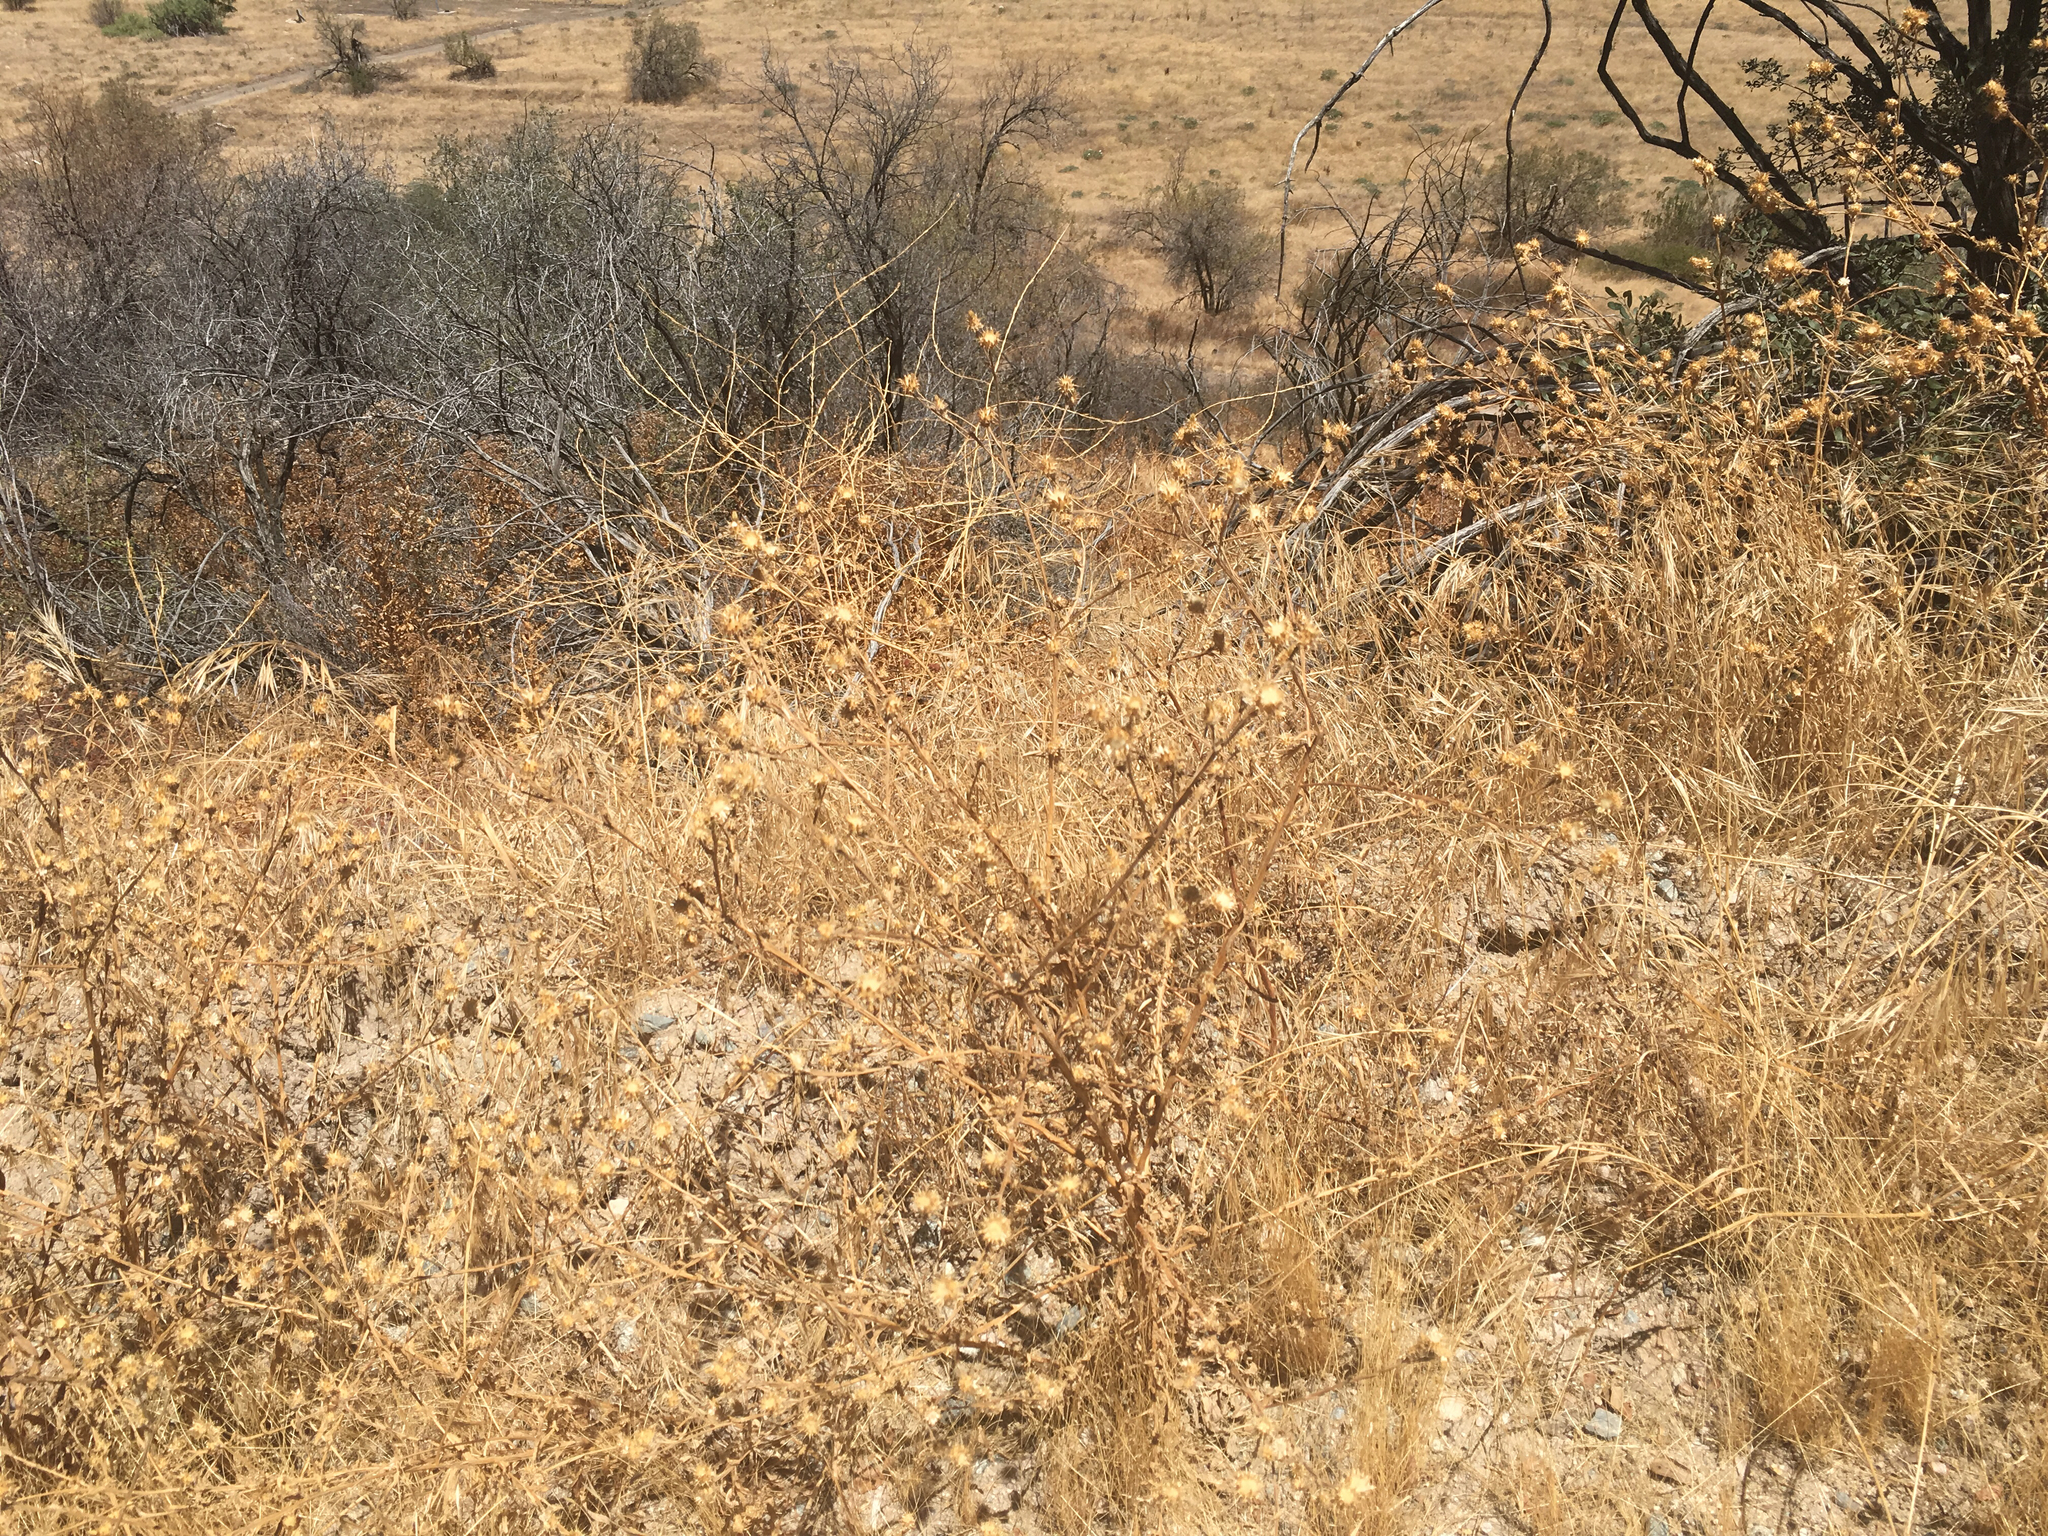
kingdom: Plantae
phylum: Tracheophyta
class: Magnoliopsida
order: Asterales
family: Asteraceae
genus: Centaurea
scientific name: Centaurea melitensis
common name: Maltese star-thistle
